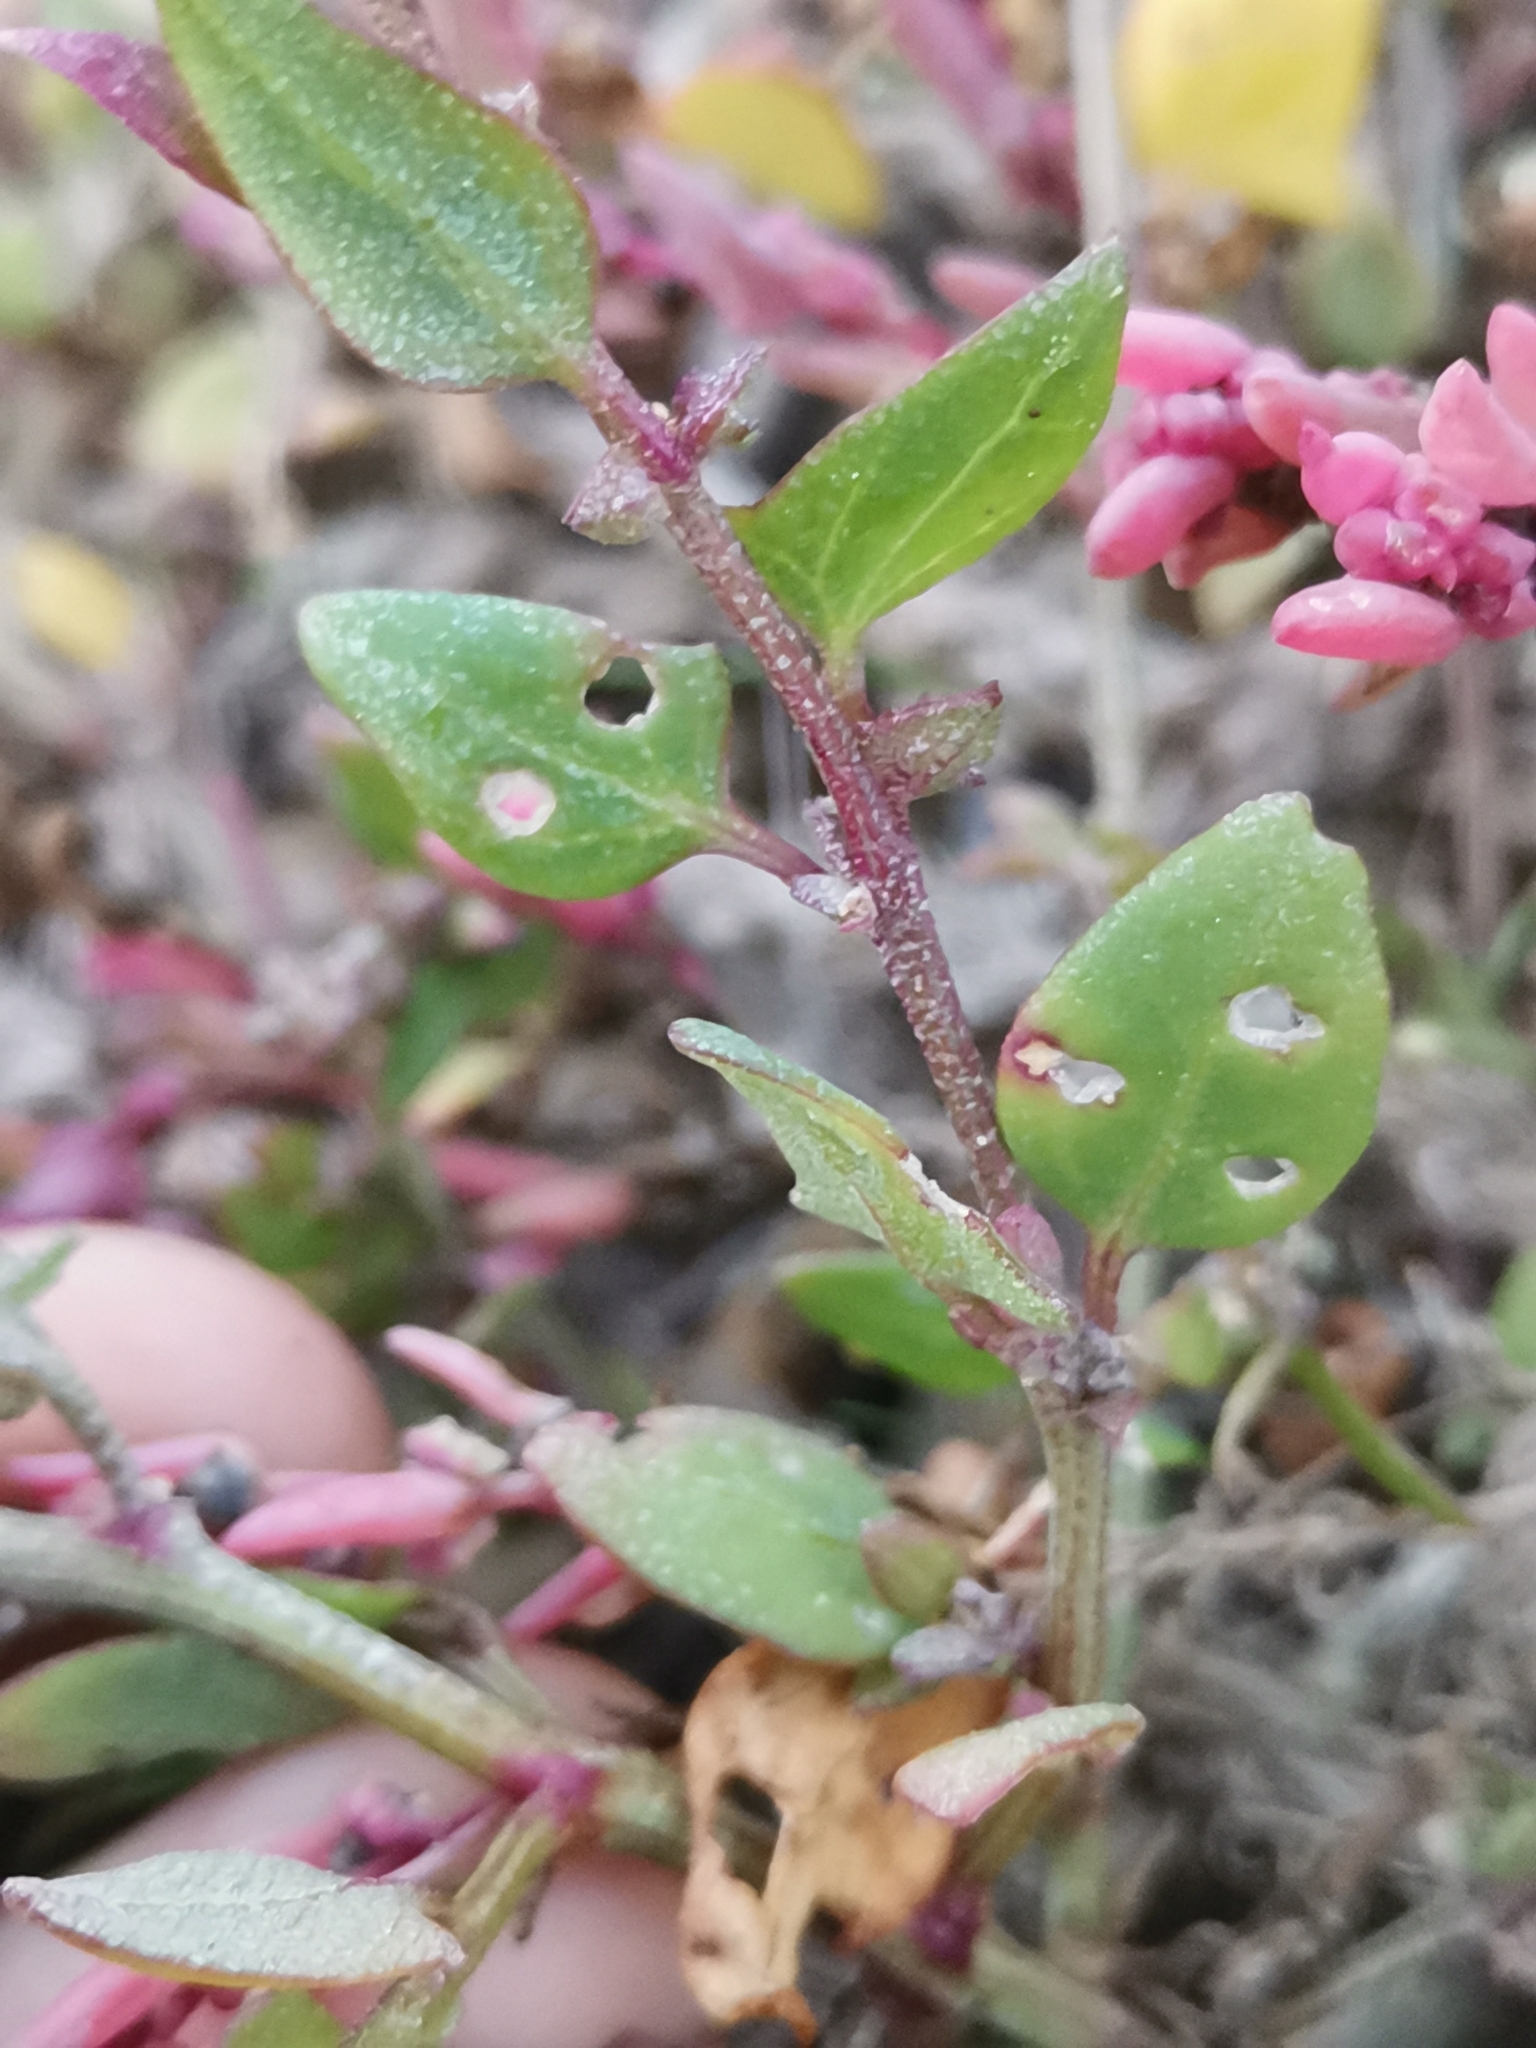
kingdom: Plantae
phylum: Tracheophyta
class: Magnoliopsida
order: Caryophyllales
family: Amaranthaceae
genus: Atriplex
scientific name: Atriplex prostrata
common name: Spear-leaved orache
